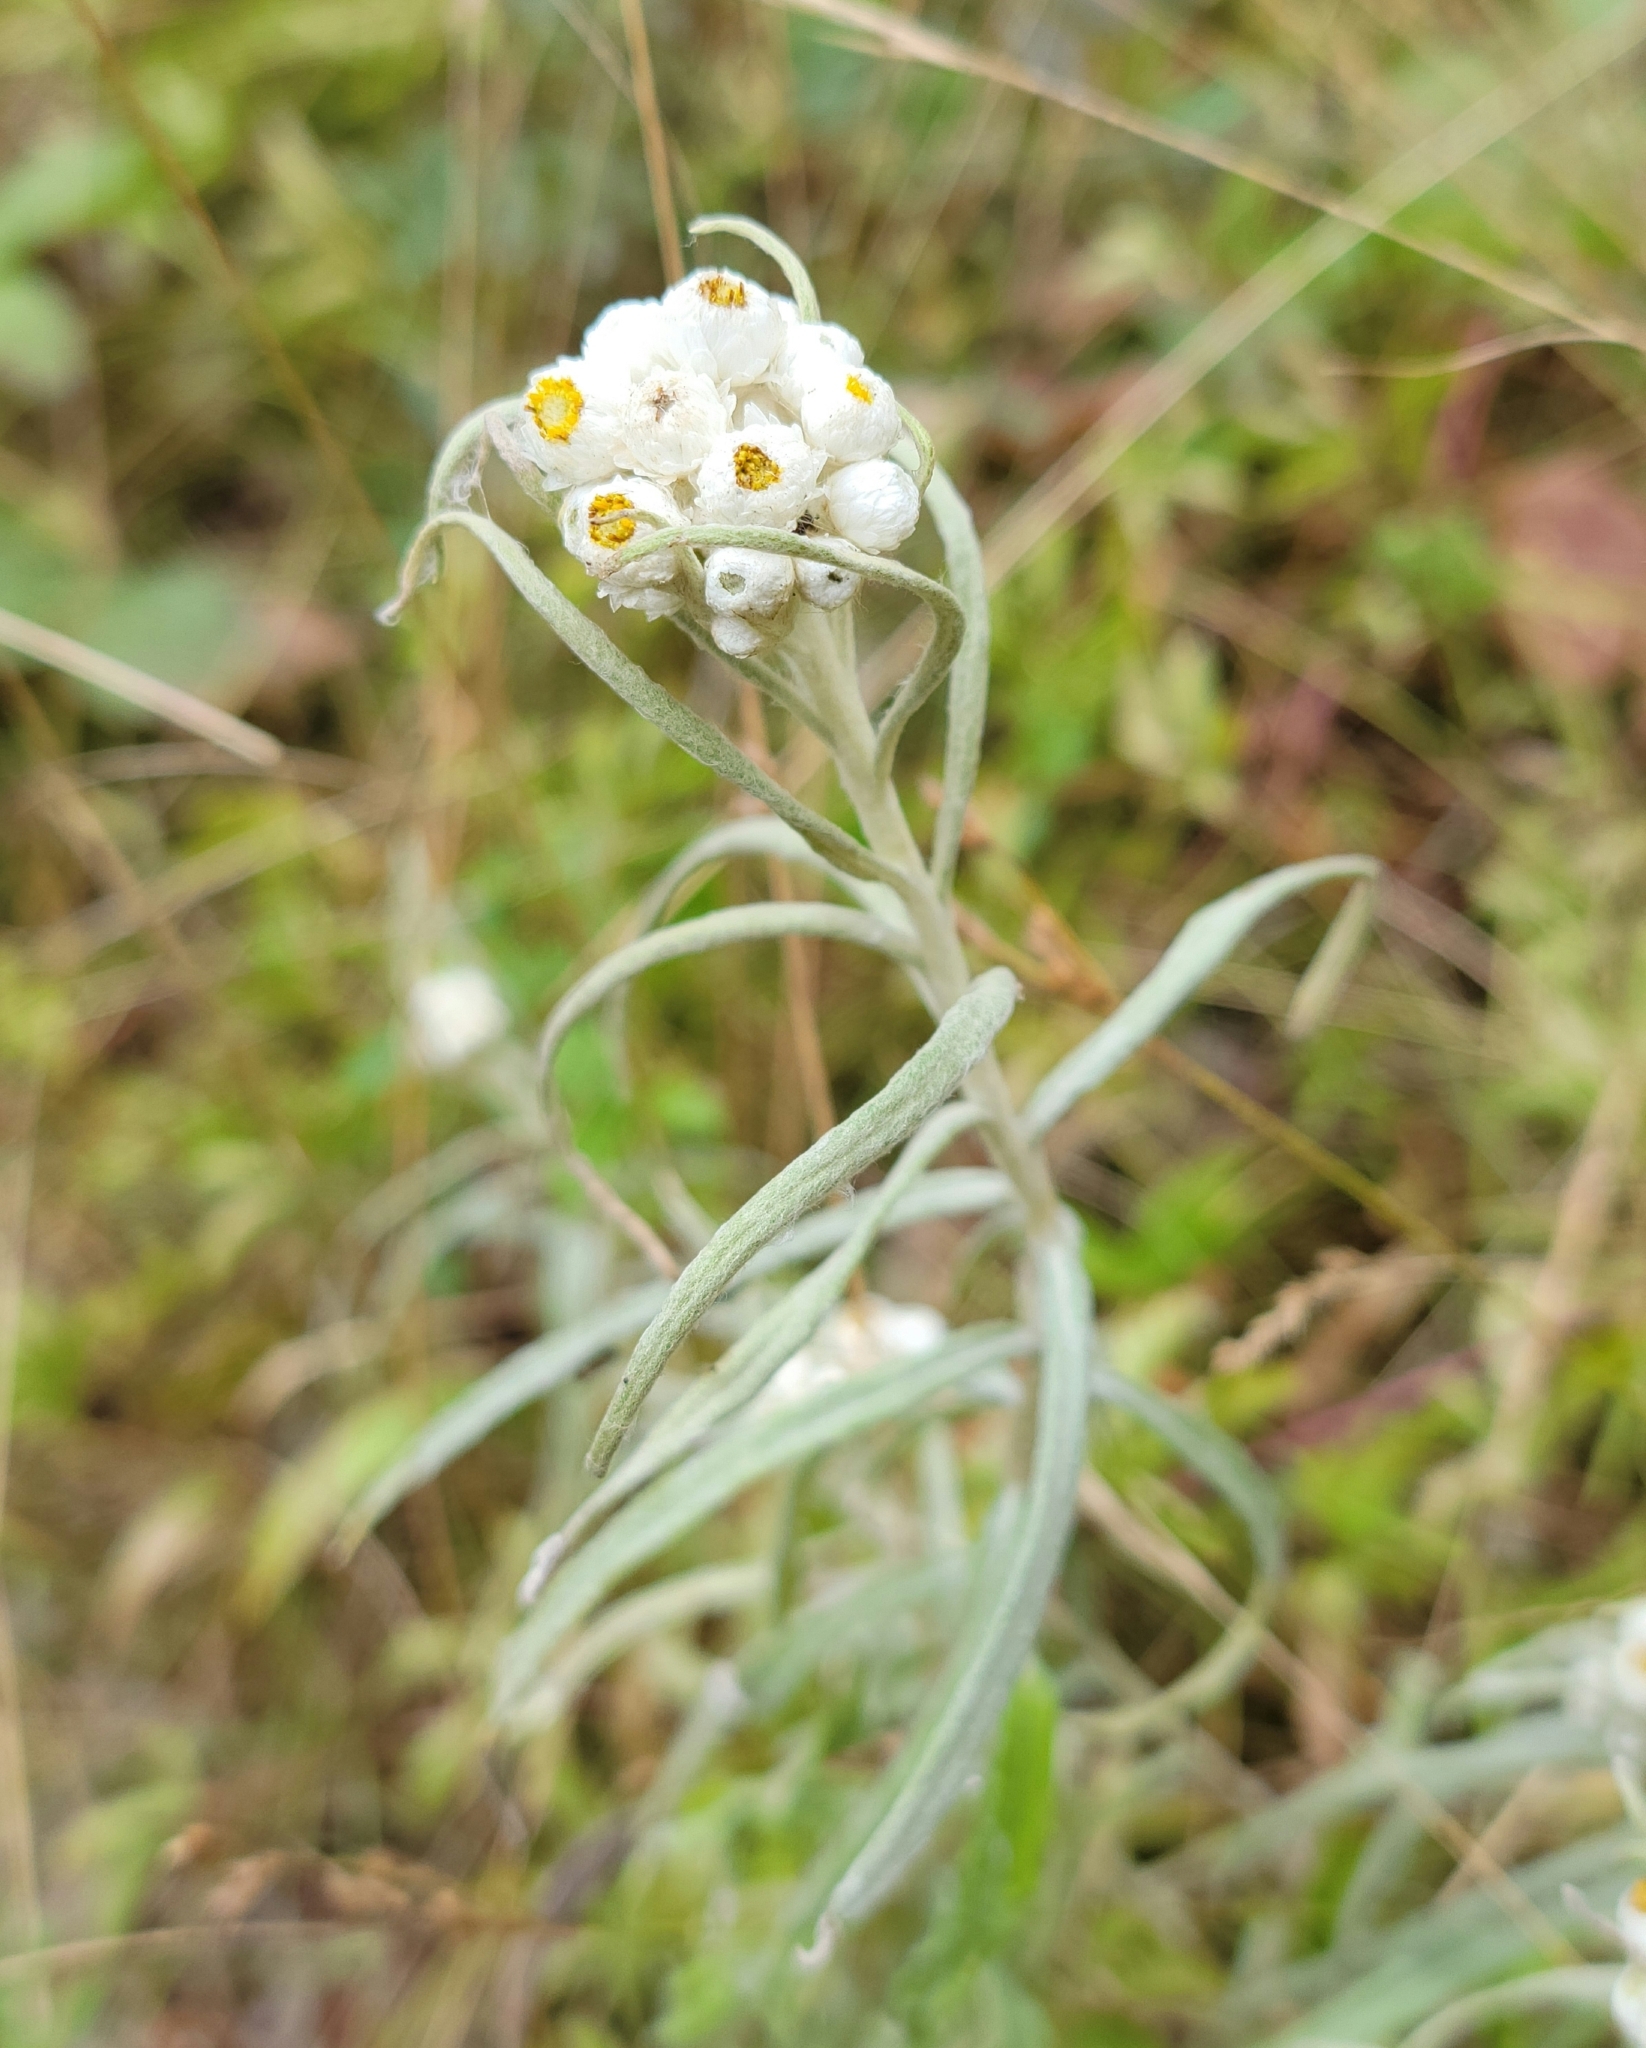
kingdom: Plantae
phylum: Tracheophyta
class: Magnoliopsida
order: Asterales
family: Asteraceae
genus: Anaphalis
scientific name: Anaphalis margaritacea
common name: Pearly everlasting
